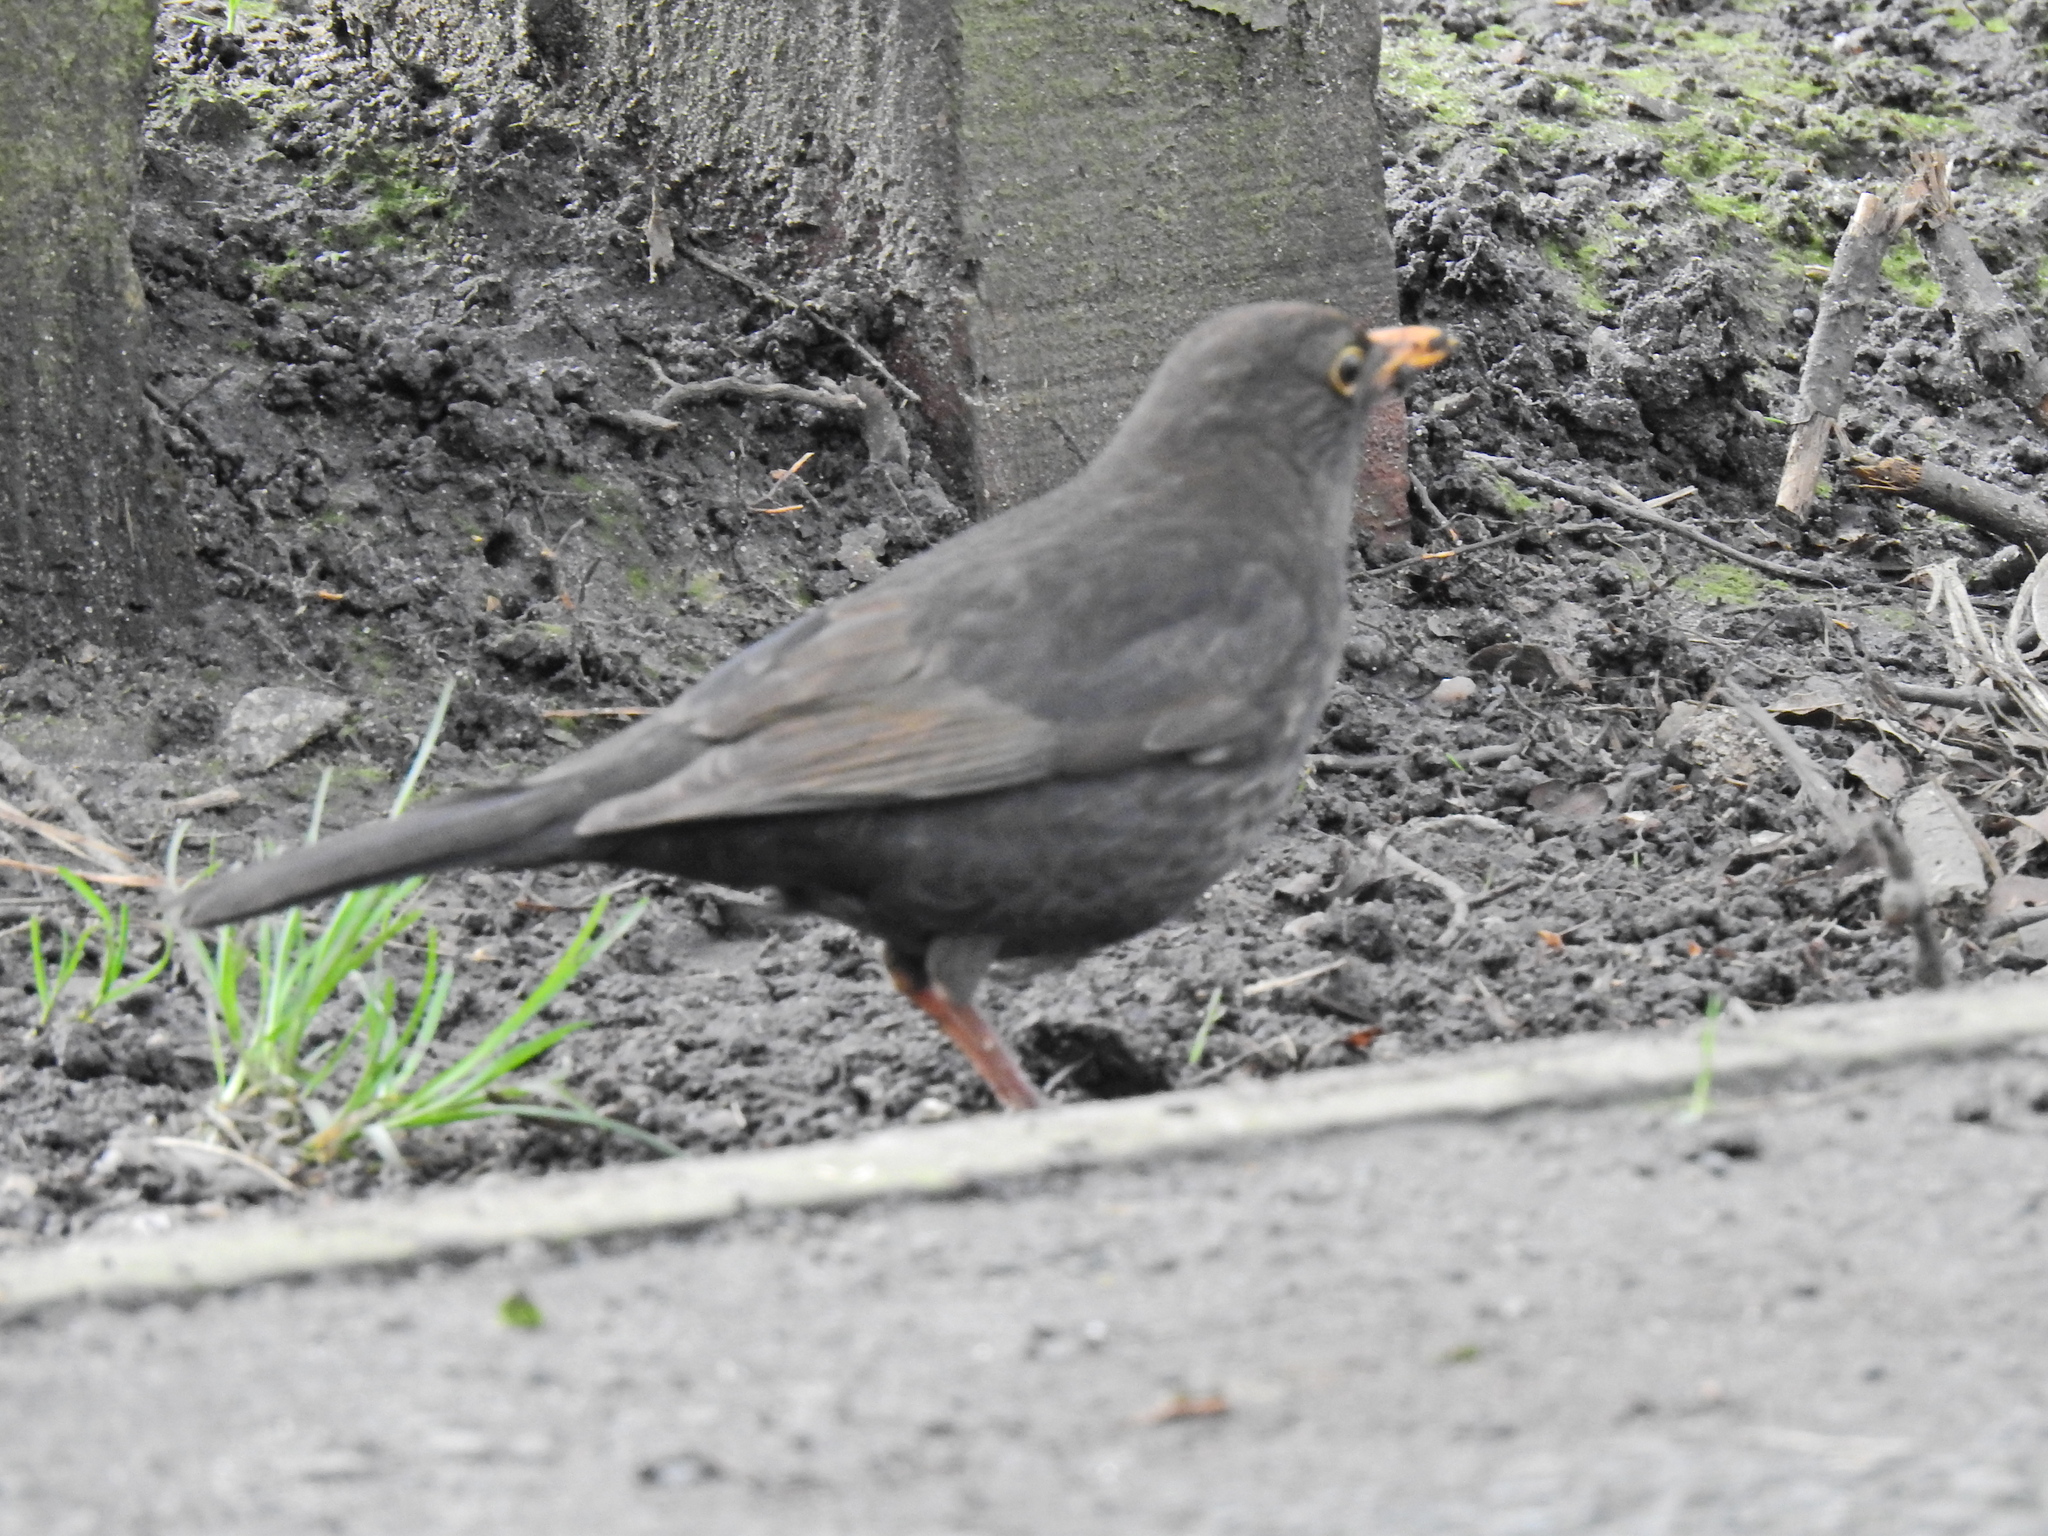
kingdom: Animalia
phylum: Chordata
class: Aves
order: Passeriformes
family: Turdidae
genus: Turdus
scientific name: Turdus merula
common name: Common blackbird
